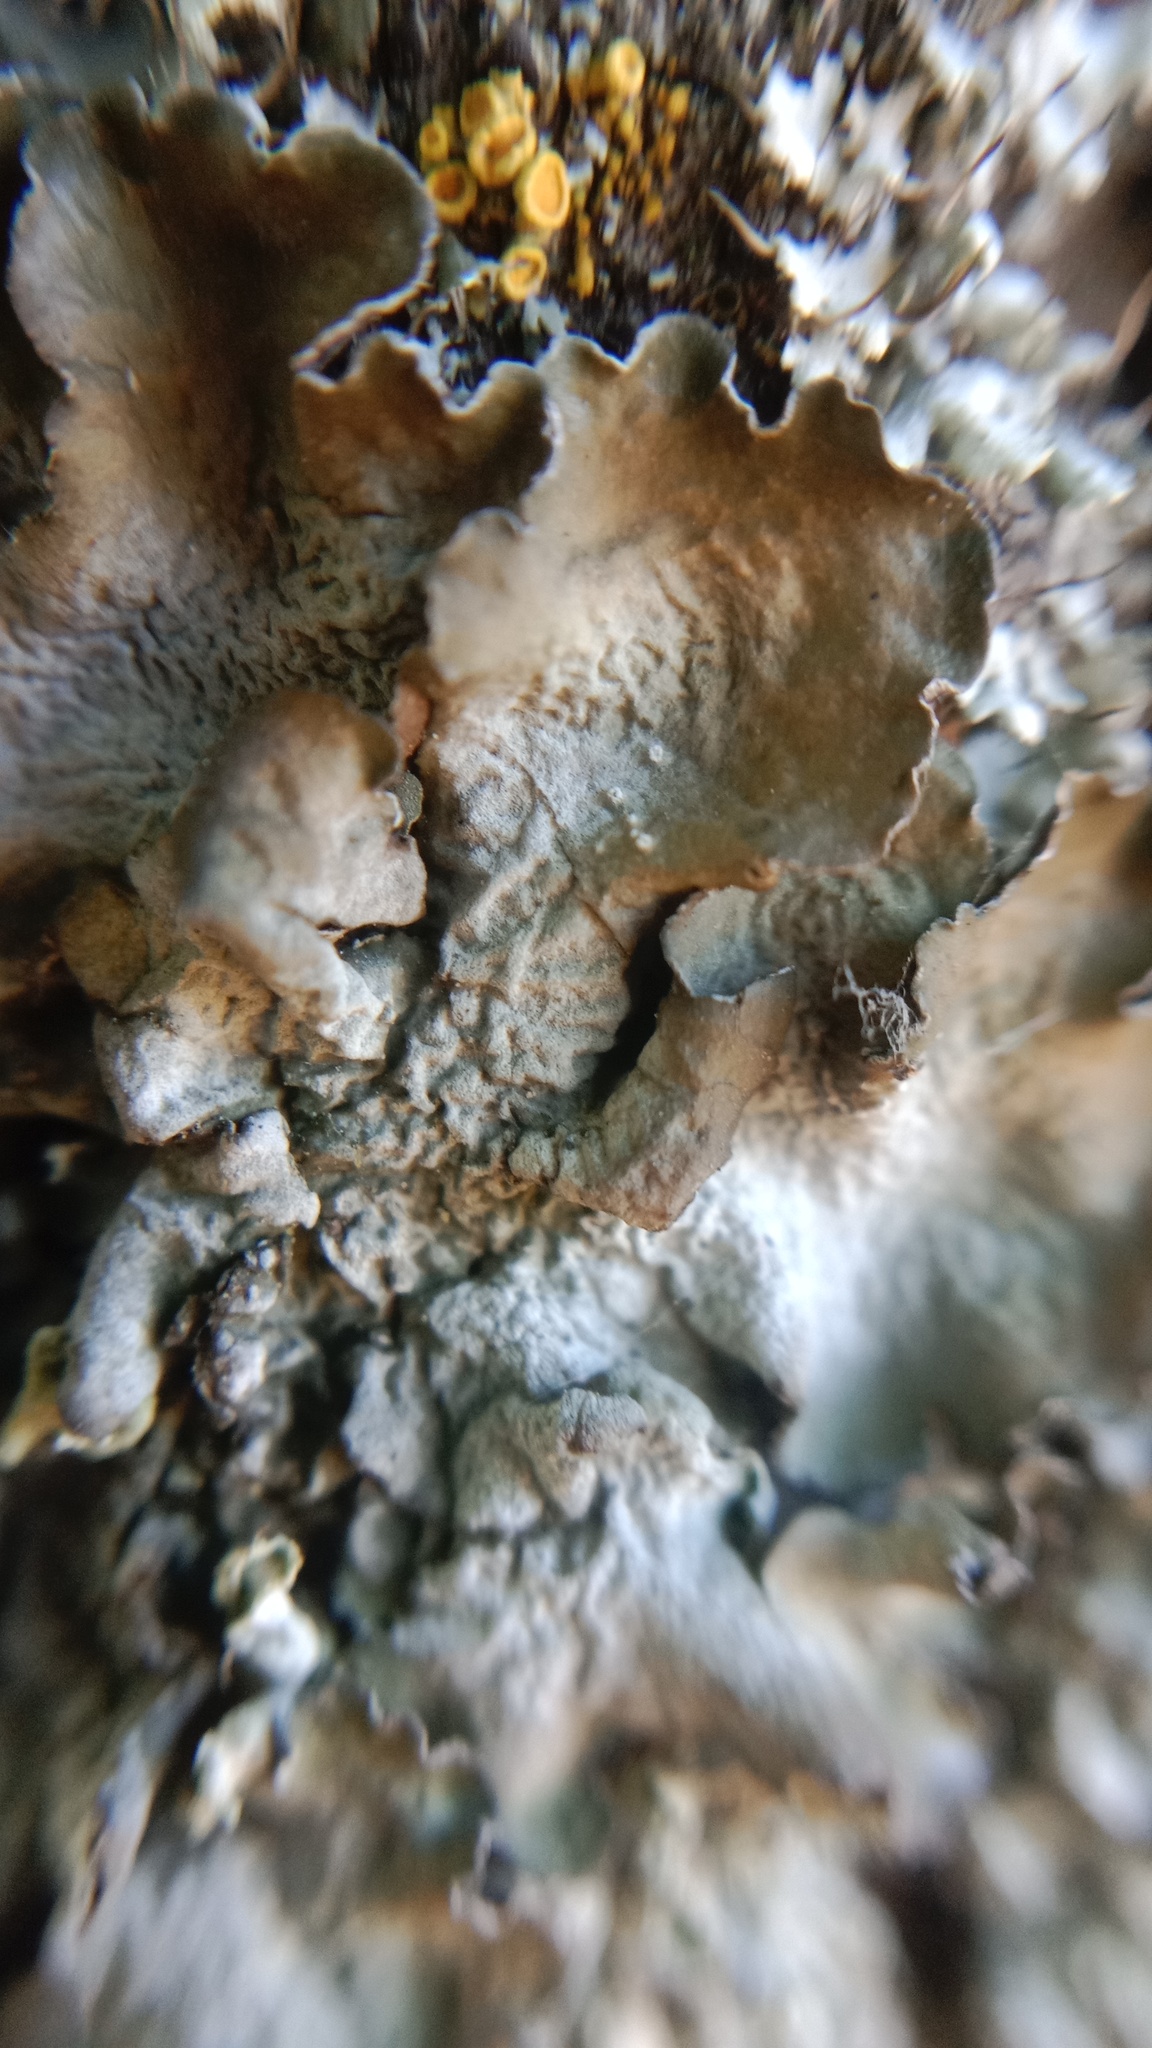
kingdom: Fungi
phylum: Ascomycota
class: Lecanoromycetes
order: Lecanorales
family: Parmeliaceae
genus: Pleurosticta
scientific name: Pleurosticta acetabulum
